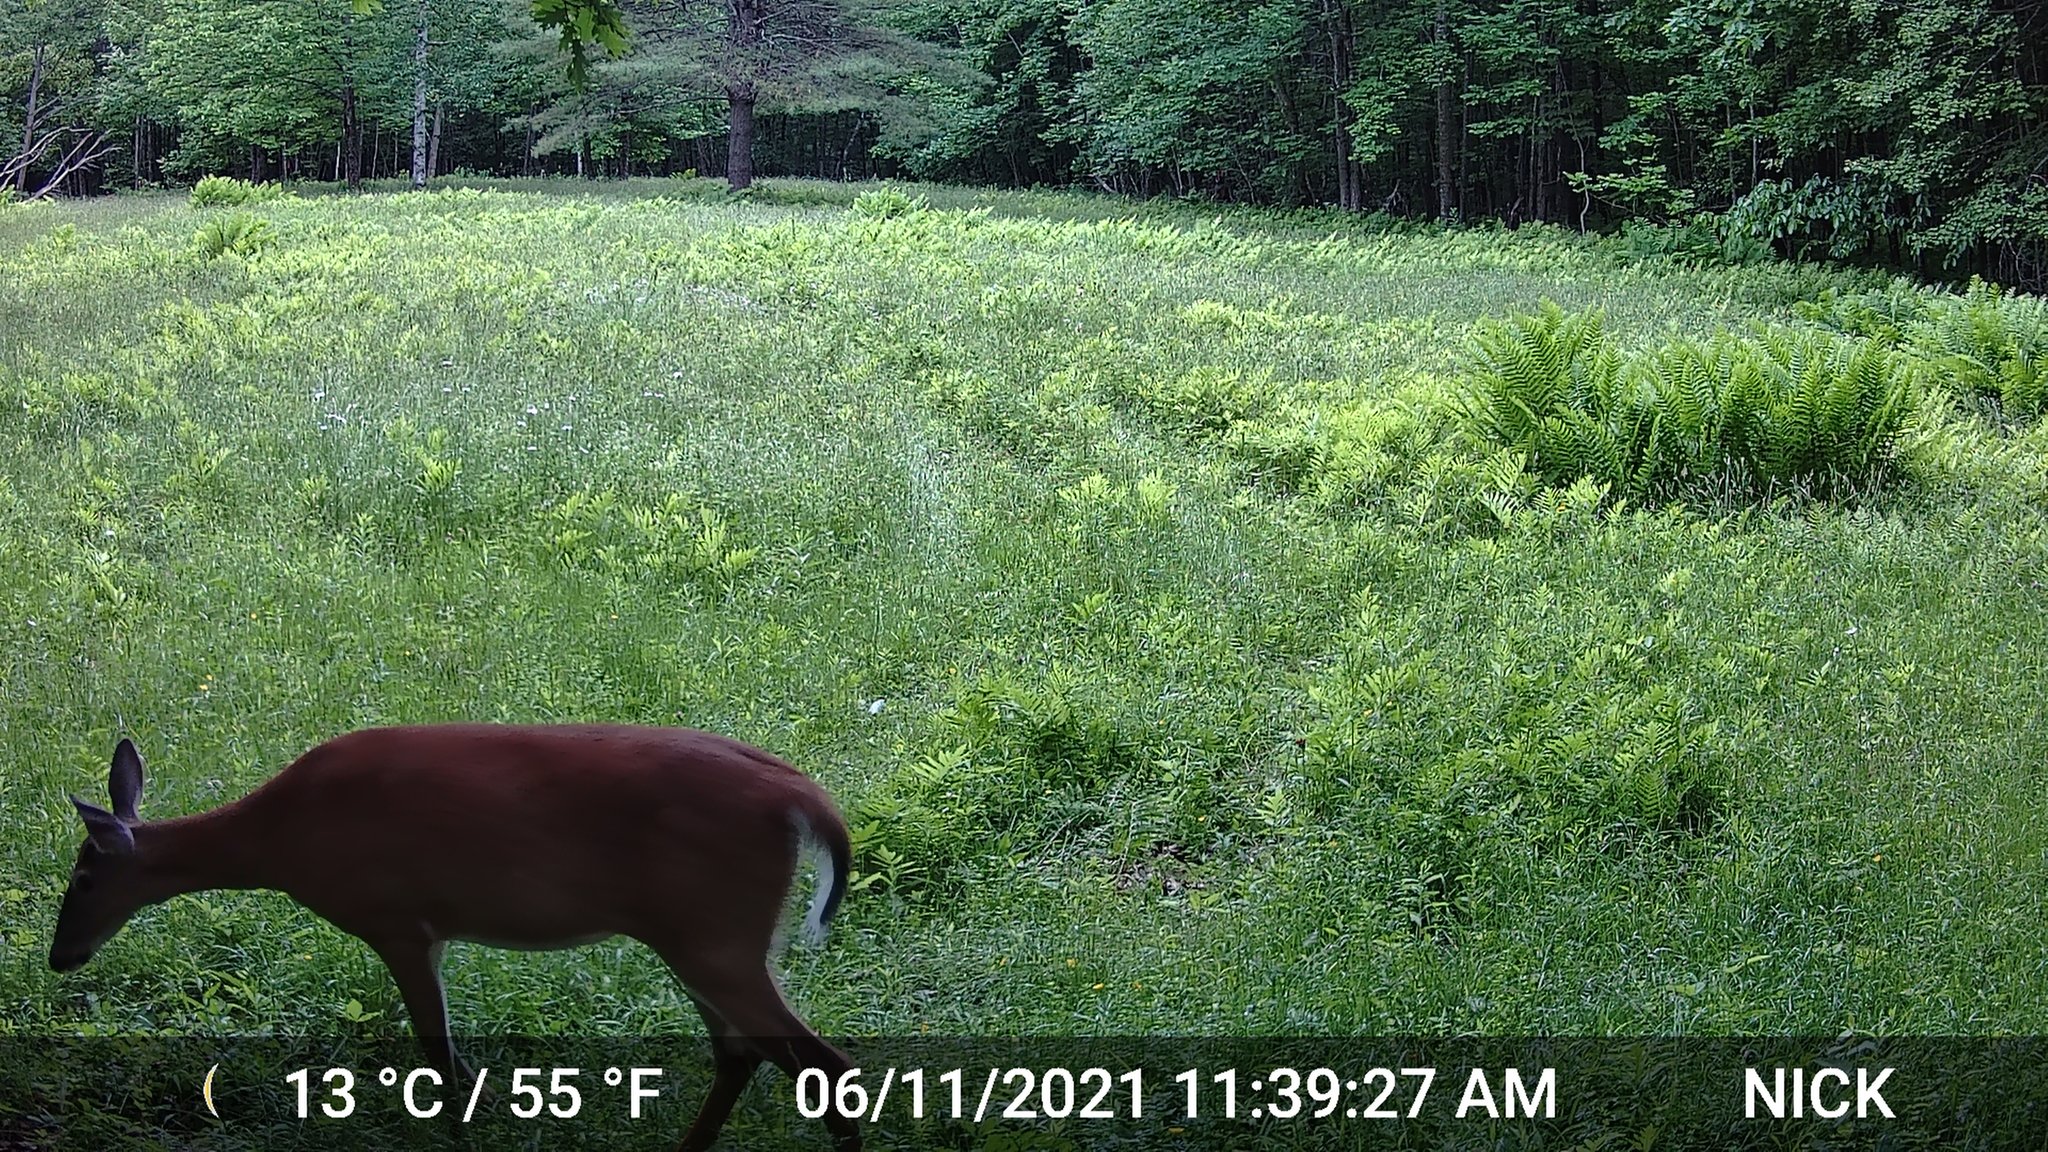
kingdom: Animalia
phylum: Chordata
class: Mammalia
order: Artiodactyla
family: Cervidae
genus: Odocoileus
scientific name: Odocoileus virginianus
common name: White-tailed deer
